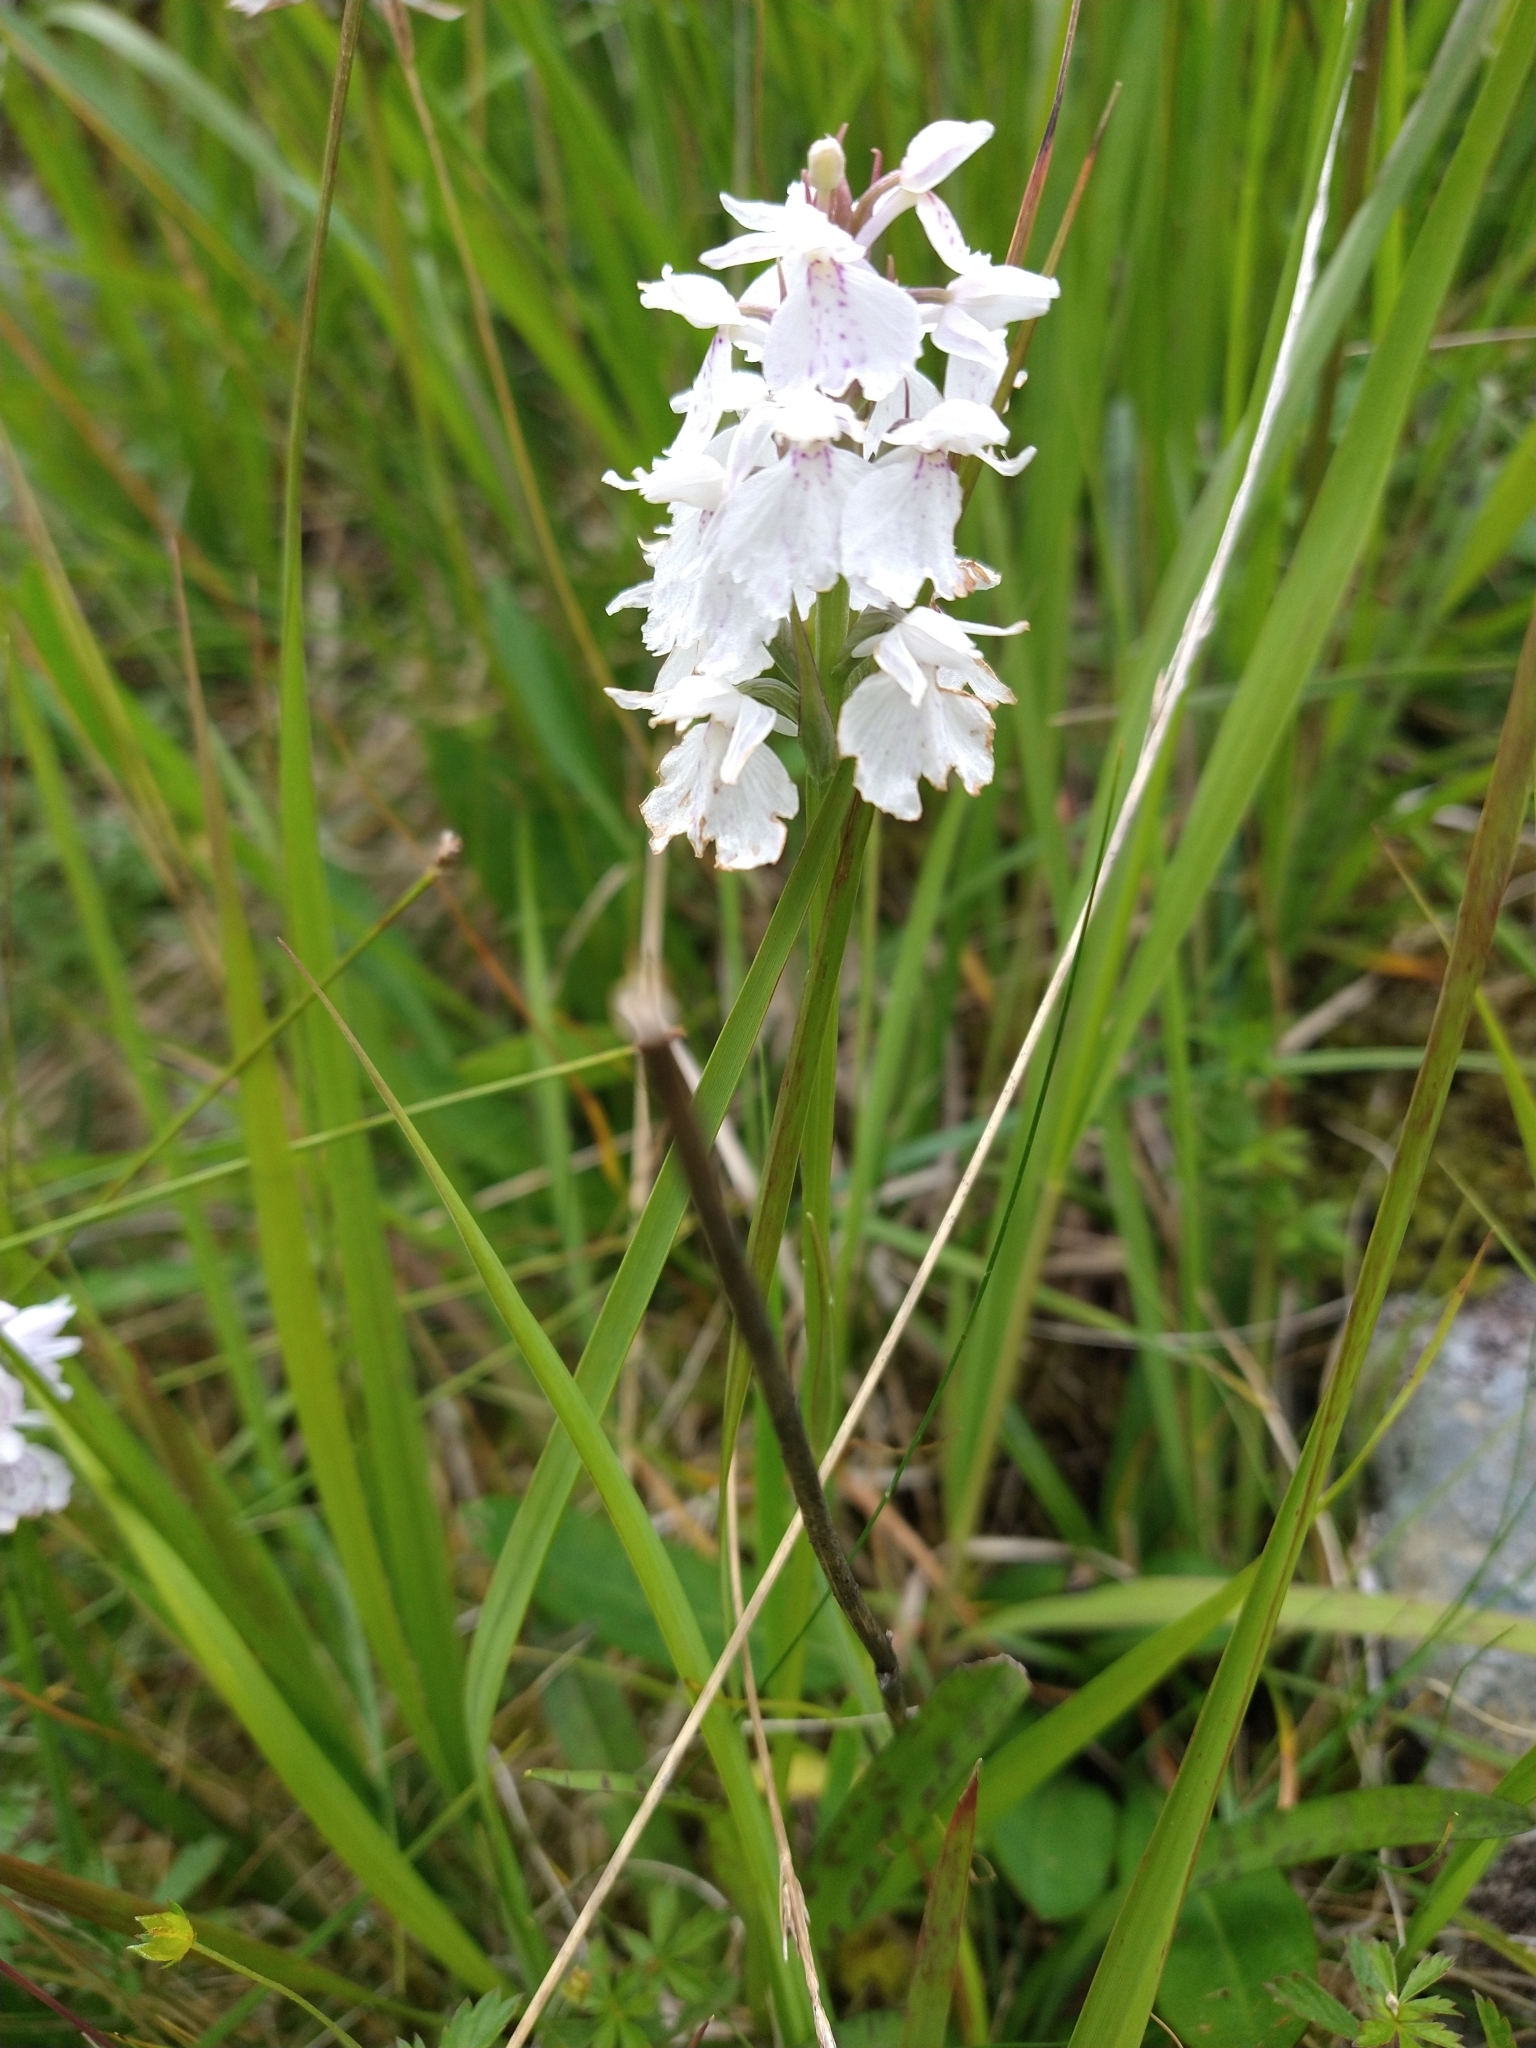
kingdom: Plantae
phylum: Tracheophyta
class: Liliopsida
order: Asparagales
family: Orchidaceae
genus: Dactylorhiza
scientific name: Dactylorhiza maculata
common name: Heath spotted-orchid
